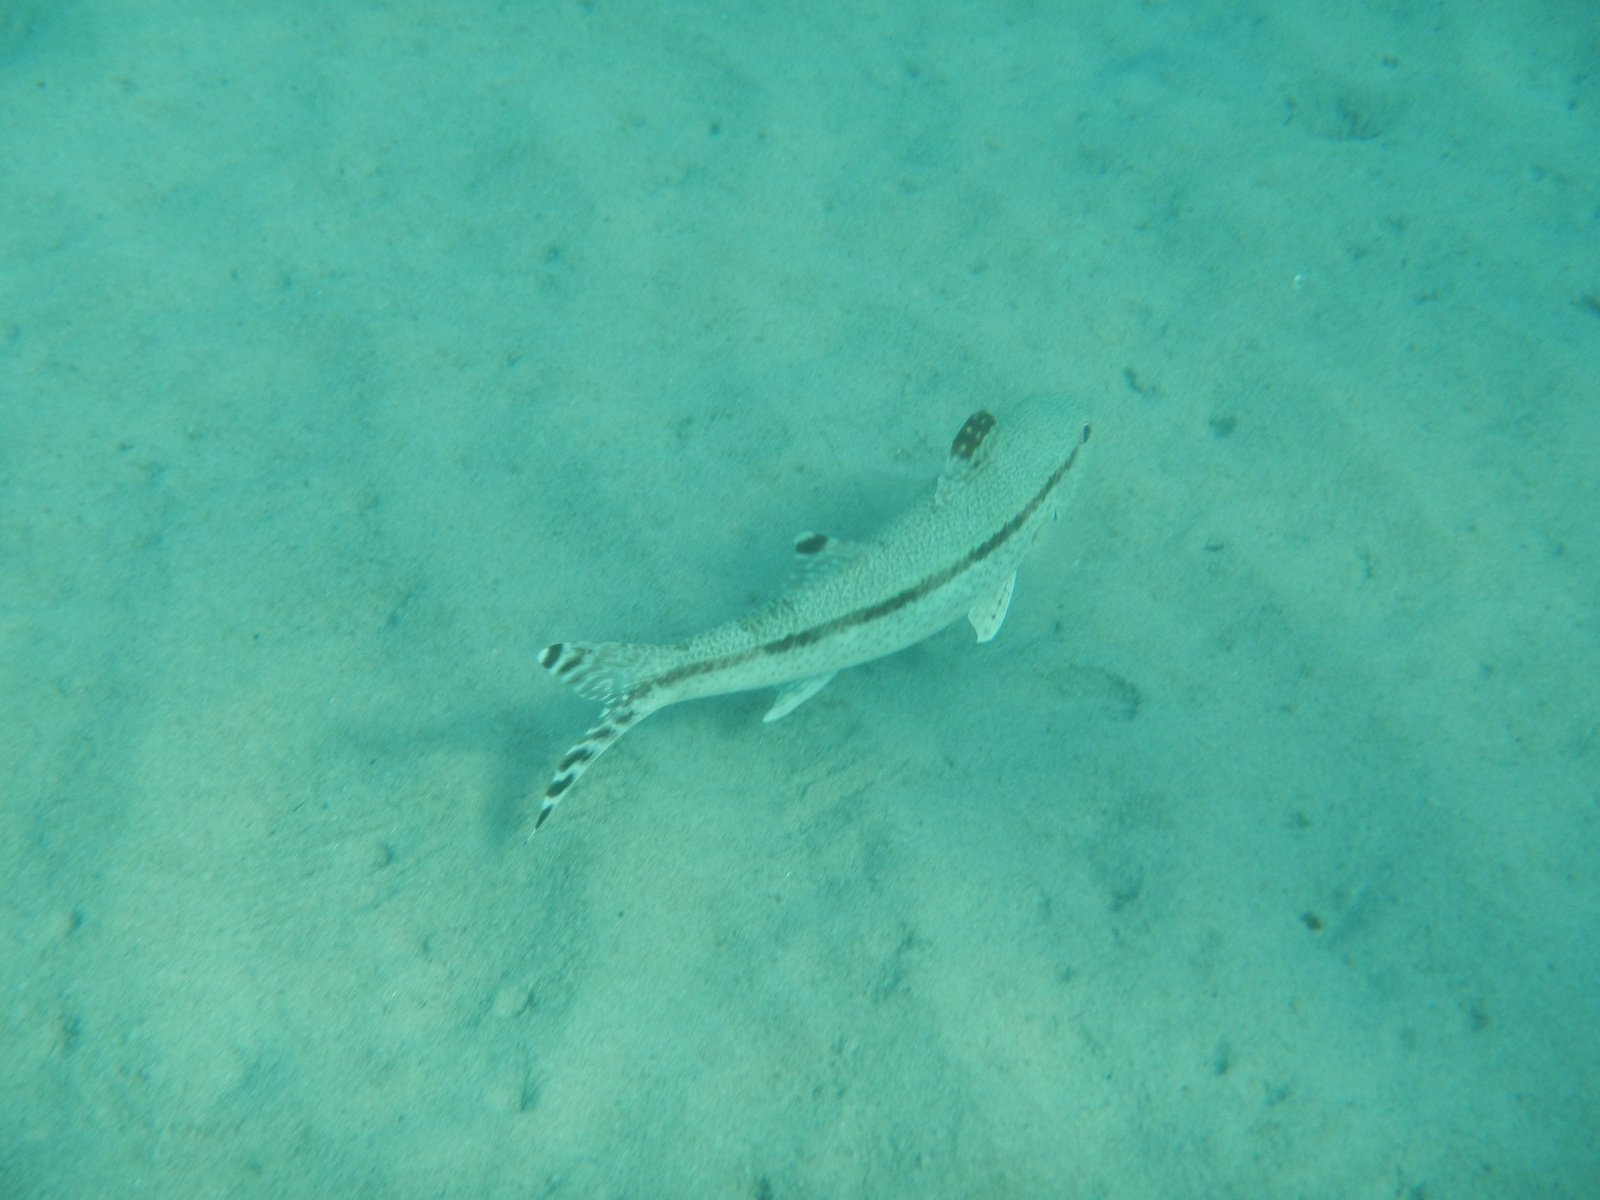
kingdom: Animalia
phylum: Chordata
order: Perciformes
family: Mullidae
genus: Upeneus
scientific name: Upeneus tragula
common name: Freckled goatfish
